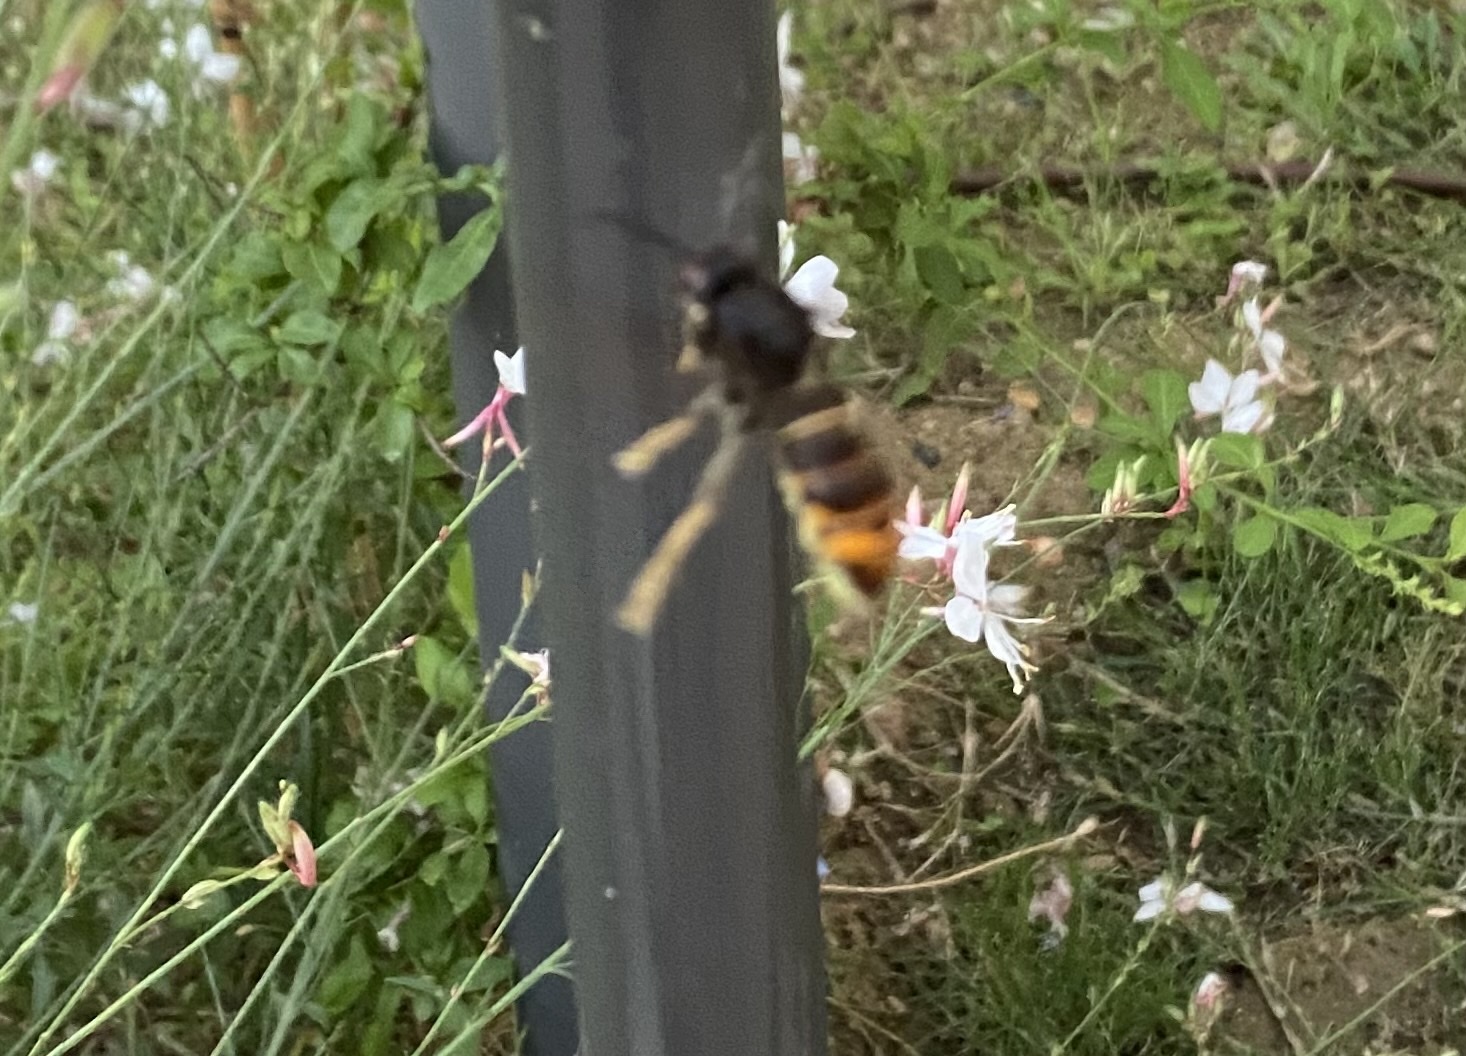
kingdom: Animalia
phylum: Arthropoda
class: Insecta
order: Hymenoptera
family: Vespidae
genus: Vespa
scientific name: Vespa velutina
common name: Asian hornet
